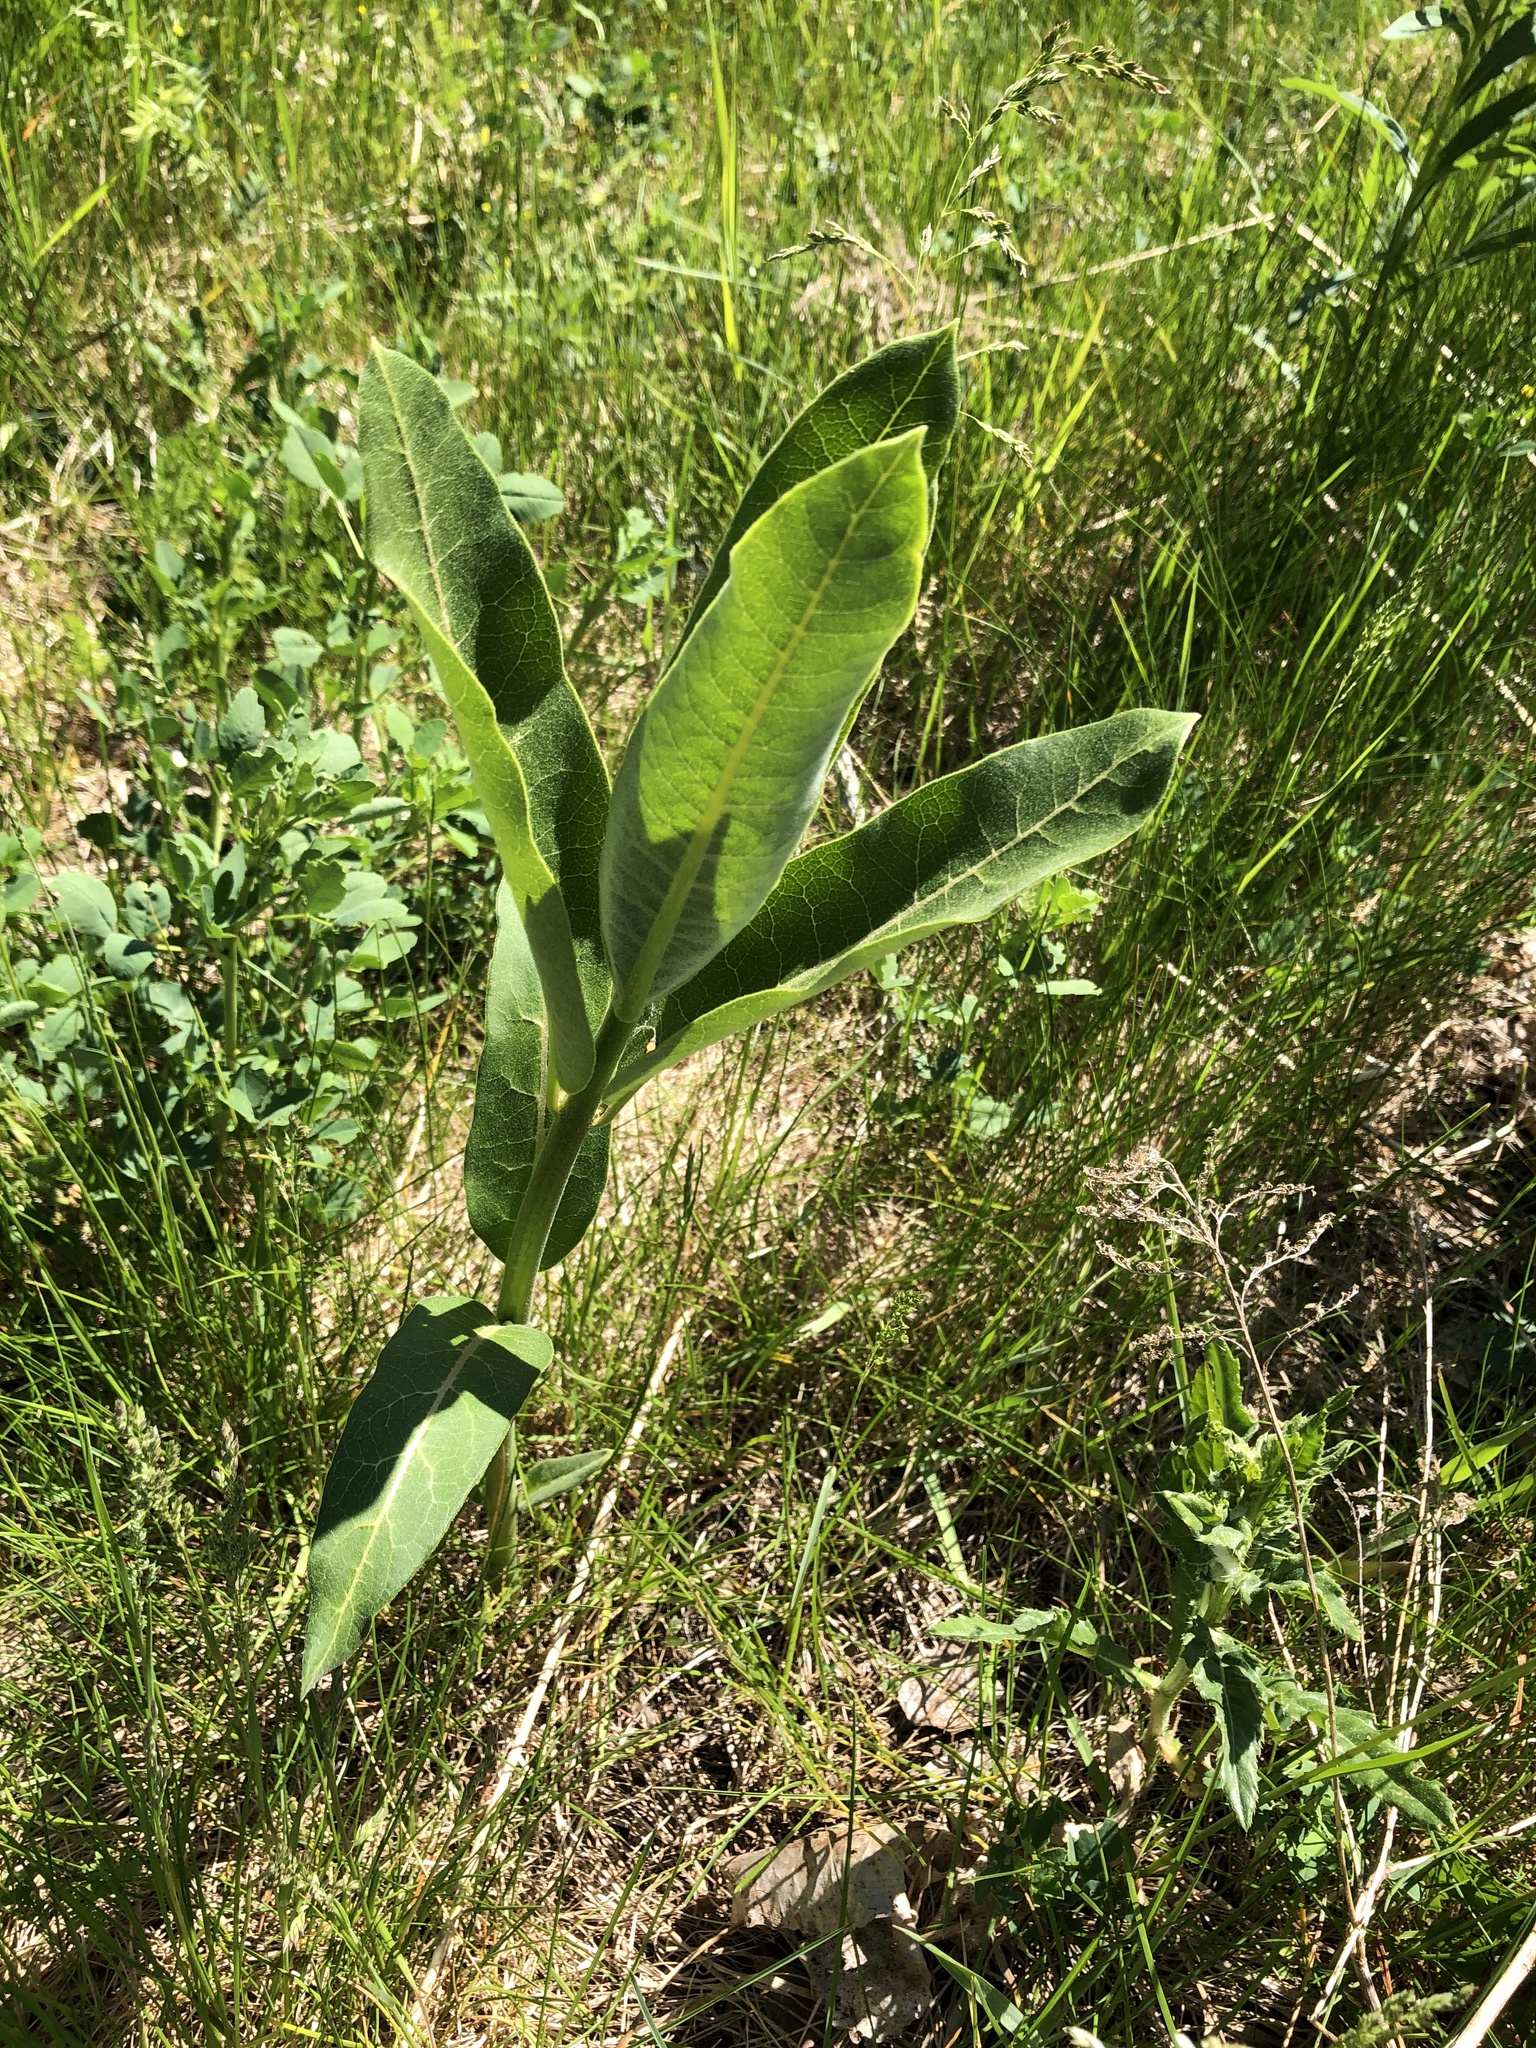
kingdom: Plantae
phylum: Tracheophyta
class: Magnoliopsida
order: Gentianales
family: Apocynaceae
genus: Asclepias
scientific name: Asclepias syriaca
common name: Common milkweed
